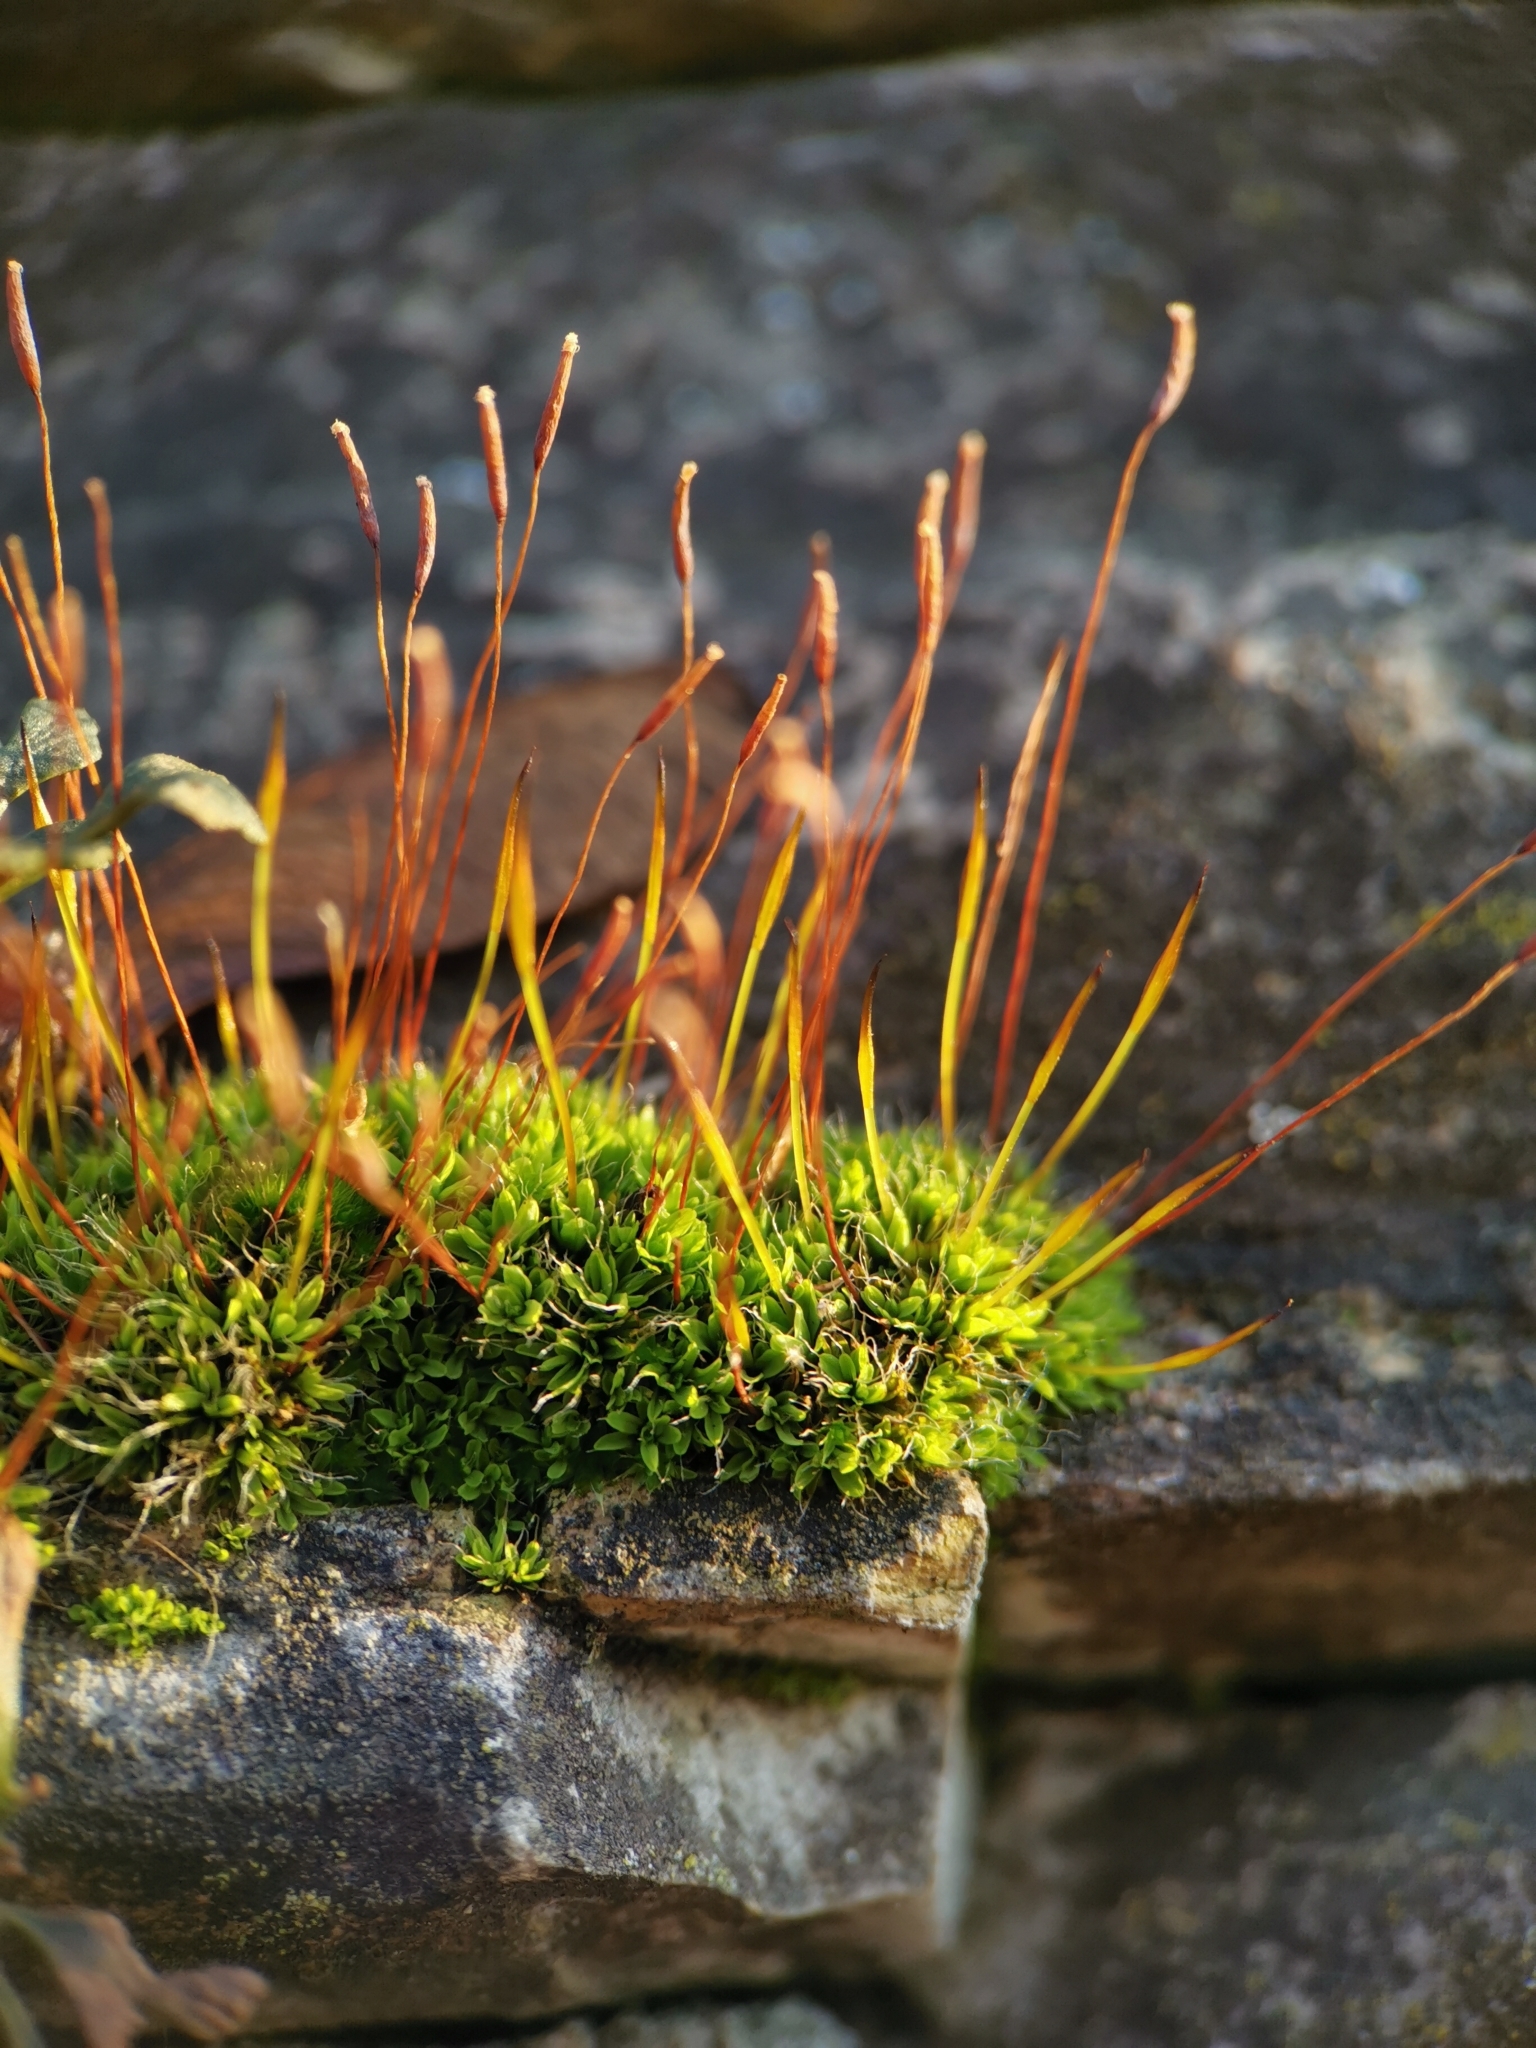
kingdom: Plantae
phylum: Bryophyta
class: Bryopsida
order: Pottiales
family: Pottiaceae
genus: Tortula
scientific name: Tortula muralis
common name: Wall screw-moss
